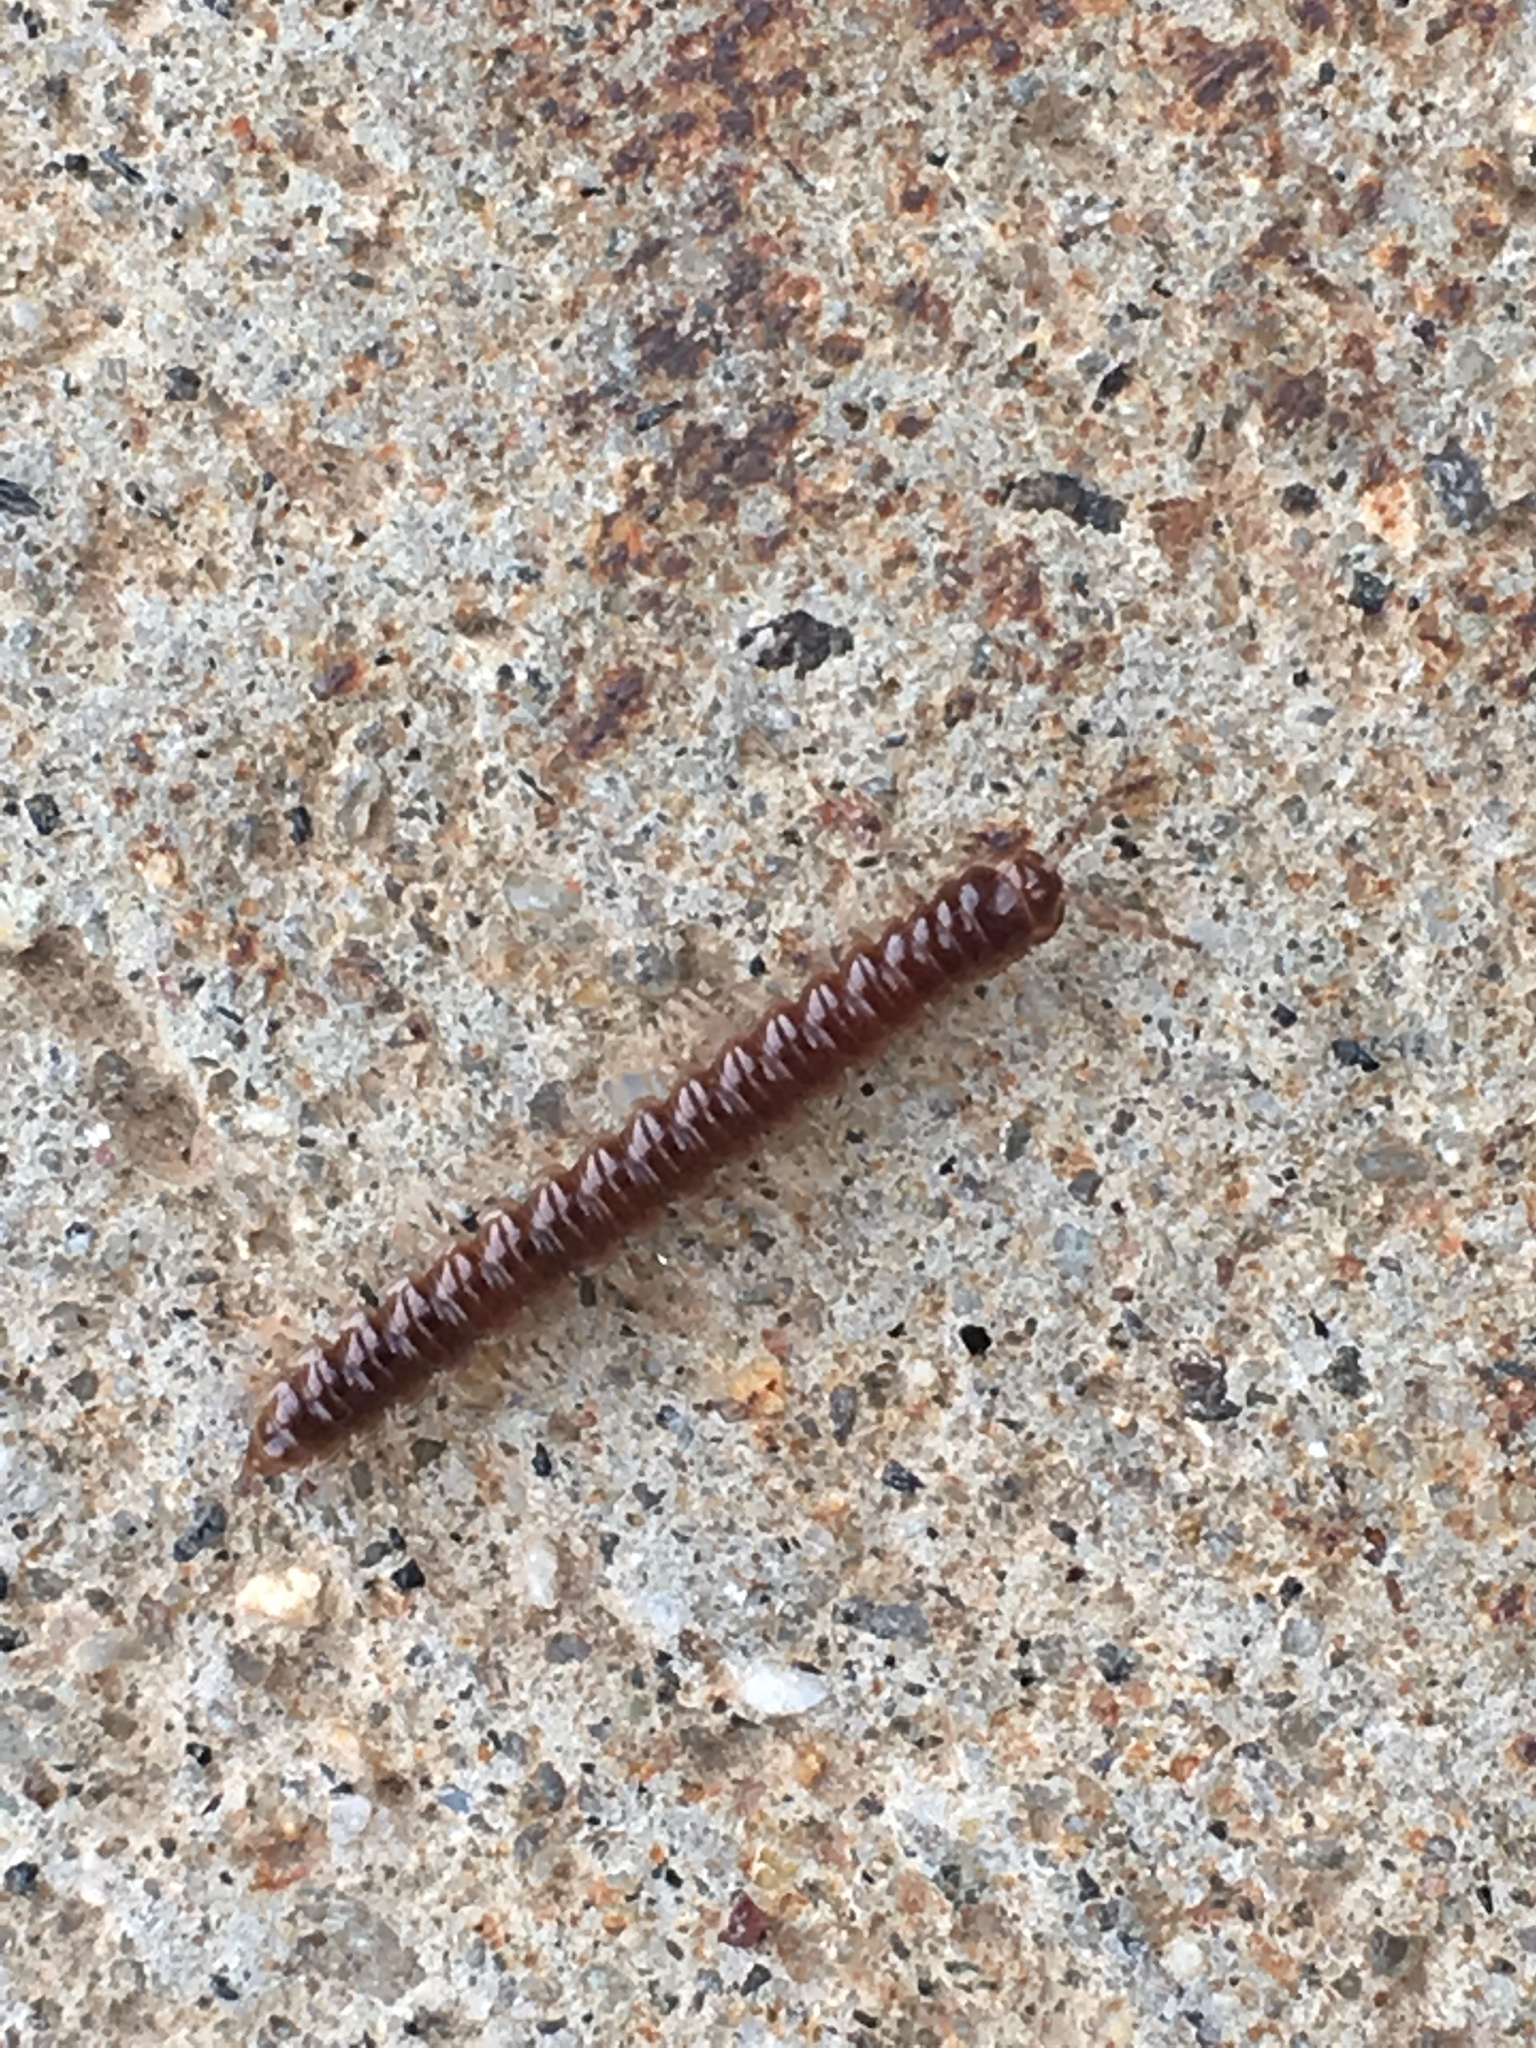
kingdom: Animalia
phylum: Arthropoda
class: Diplopoda
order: Polydesmida
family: Paradoxosomatidae
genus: Oxidus
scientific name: Oxidus gracilis
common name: Greenhouse millipede
